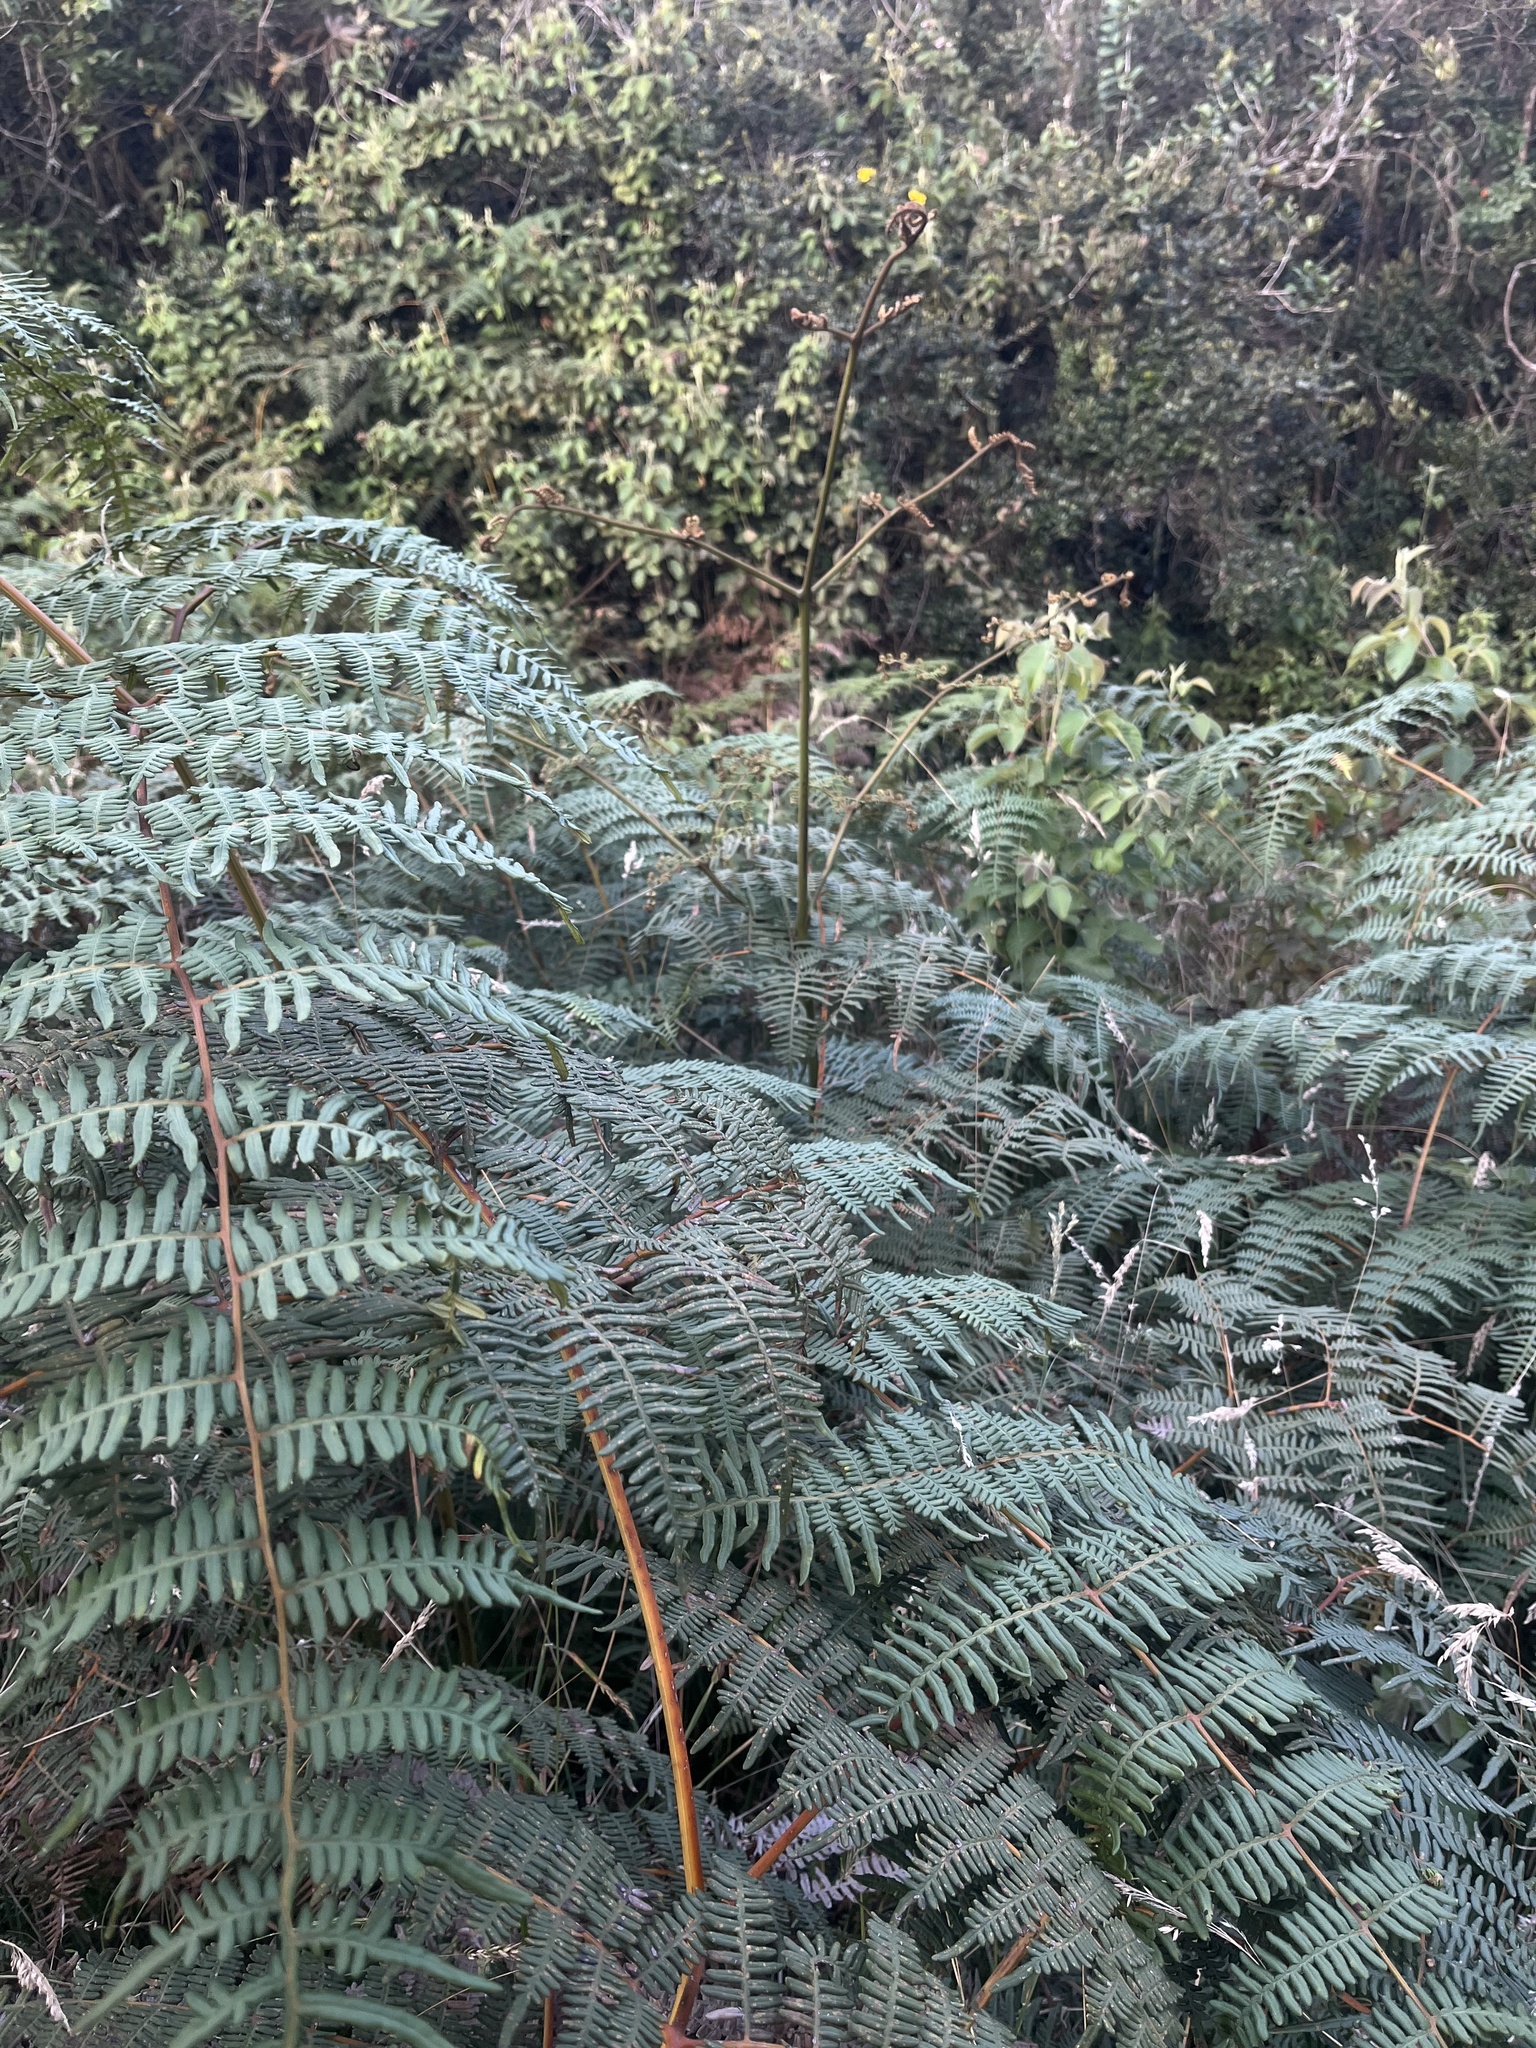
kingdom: Plantae
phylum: Tracheophyta
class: Polypodiopsida
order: Polypodiales
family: Dennstaedtiaceae
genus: Pteridium
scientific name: Pteridium esculentum
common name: Bracken fern
